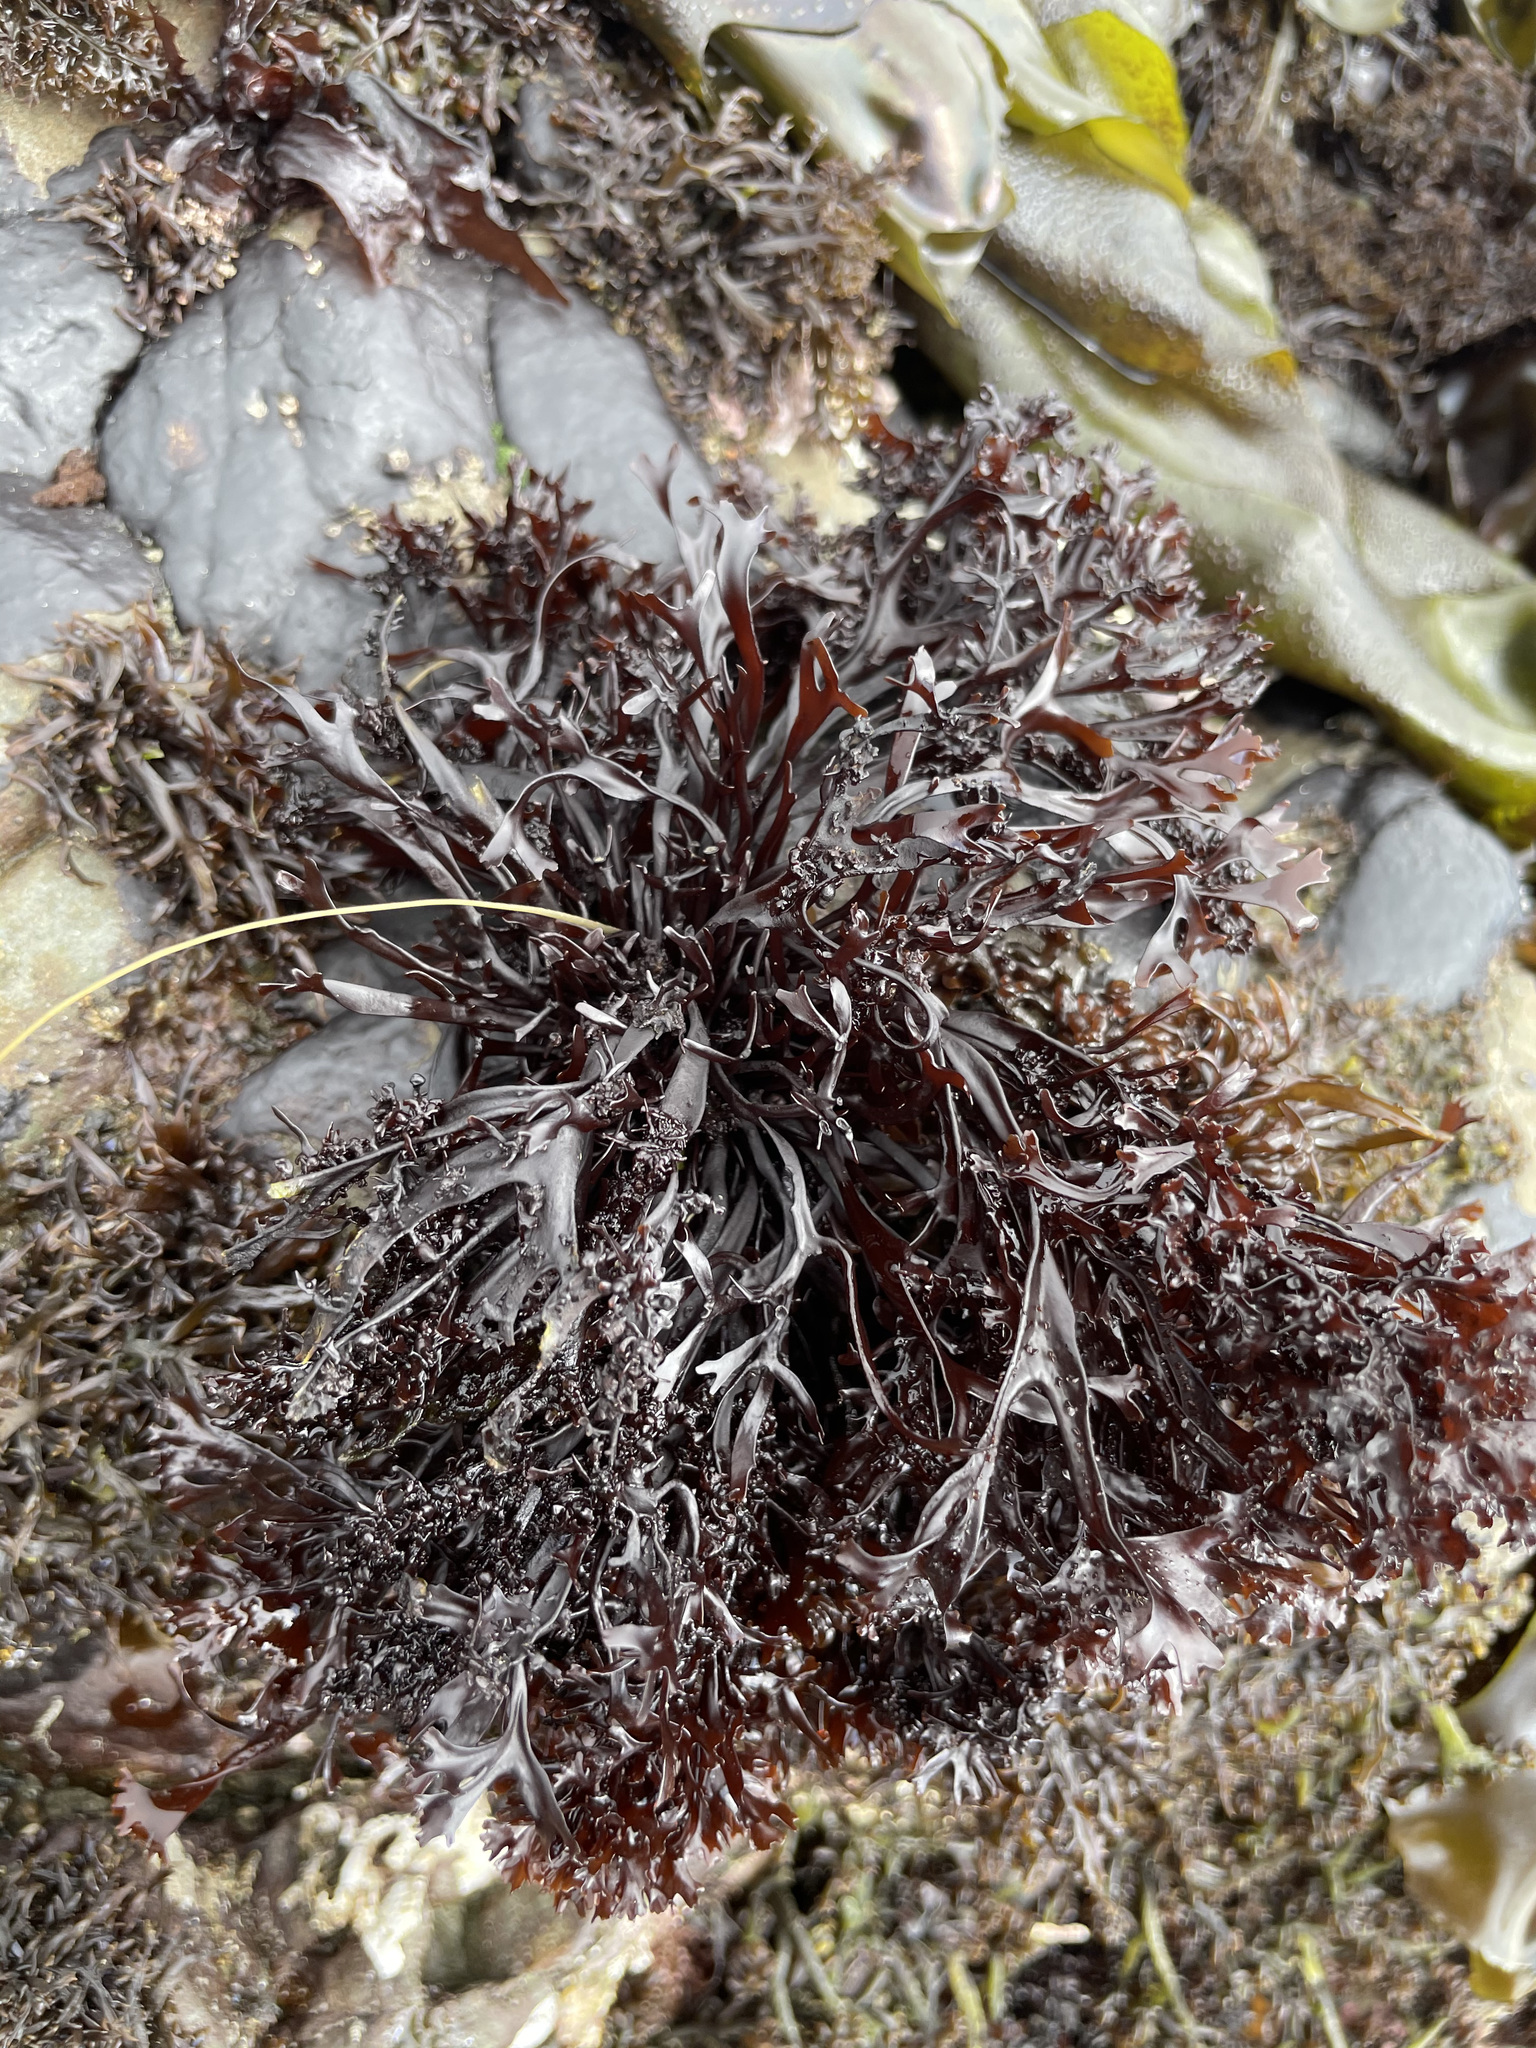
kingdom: Plantae
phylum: Rhodophyta
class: Florideophyceae
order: Gigartinales
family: Phyllophoraceae
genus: Mastocarpus
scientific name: Mastocarpus jardinii
